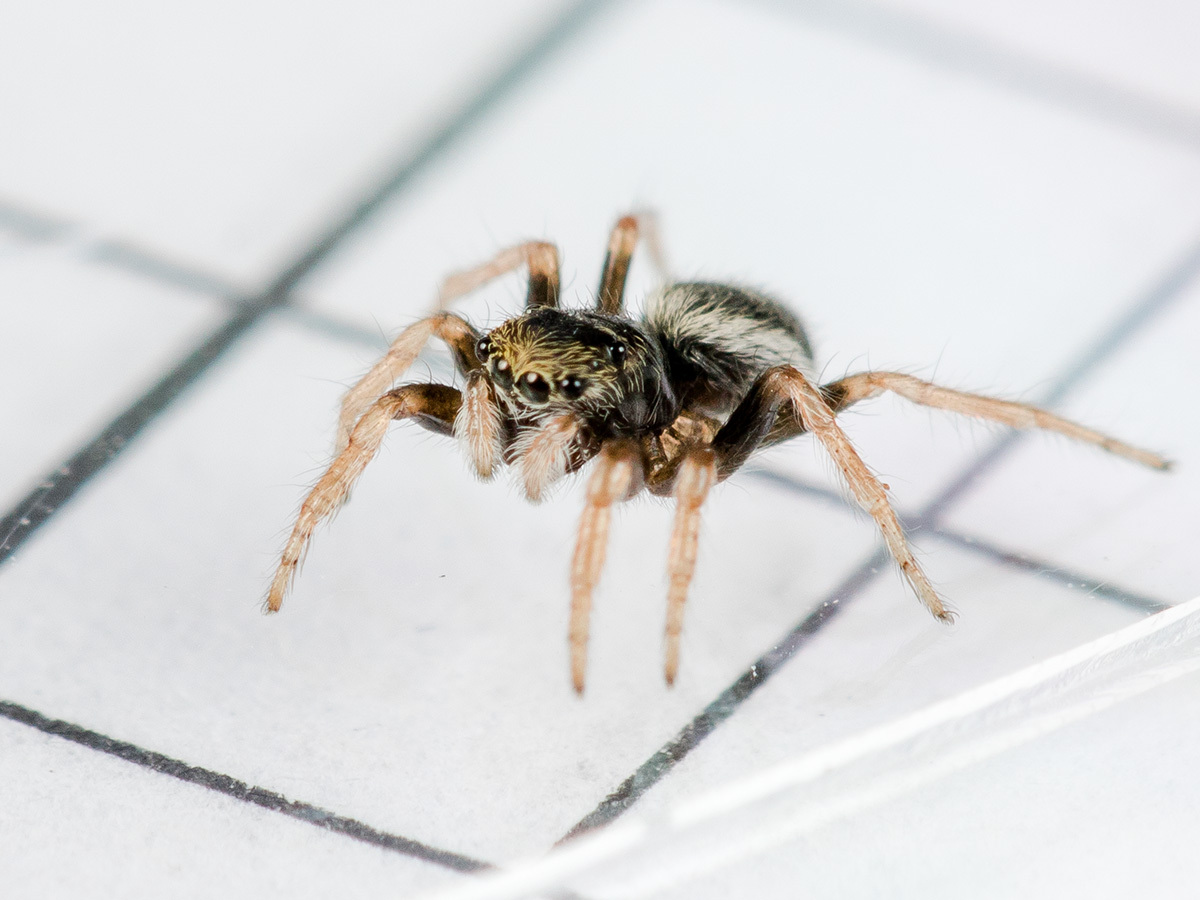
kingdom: Animalia
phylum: Arthropoda
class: Arachnida
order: Araneae
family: Salticidae
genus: Chalcoscirtus
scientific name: Chalcoscirtus karakurt
